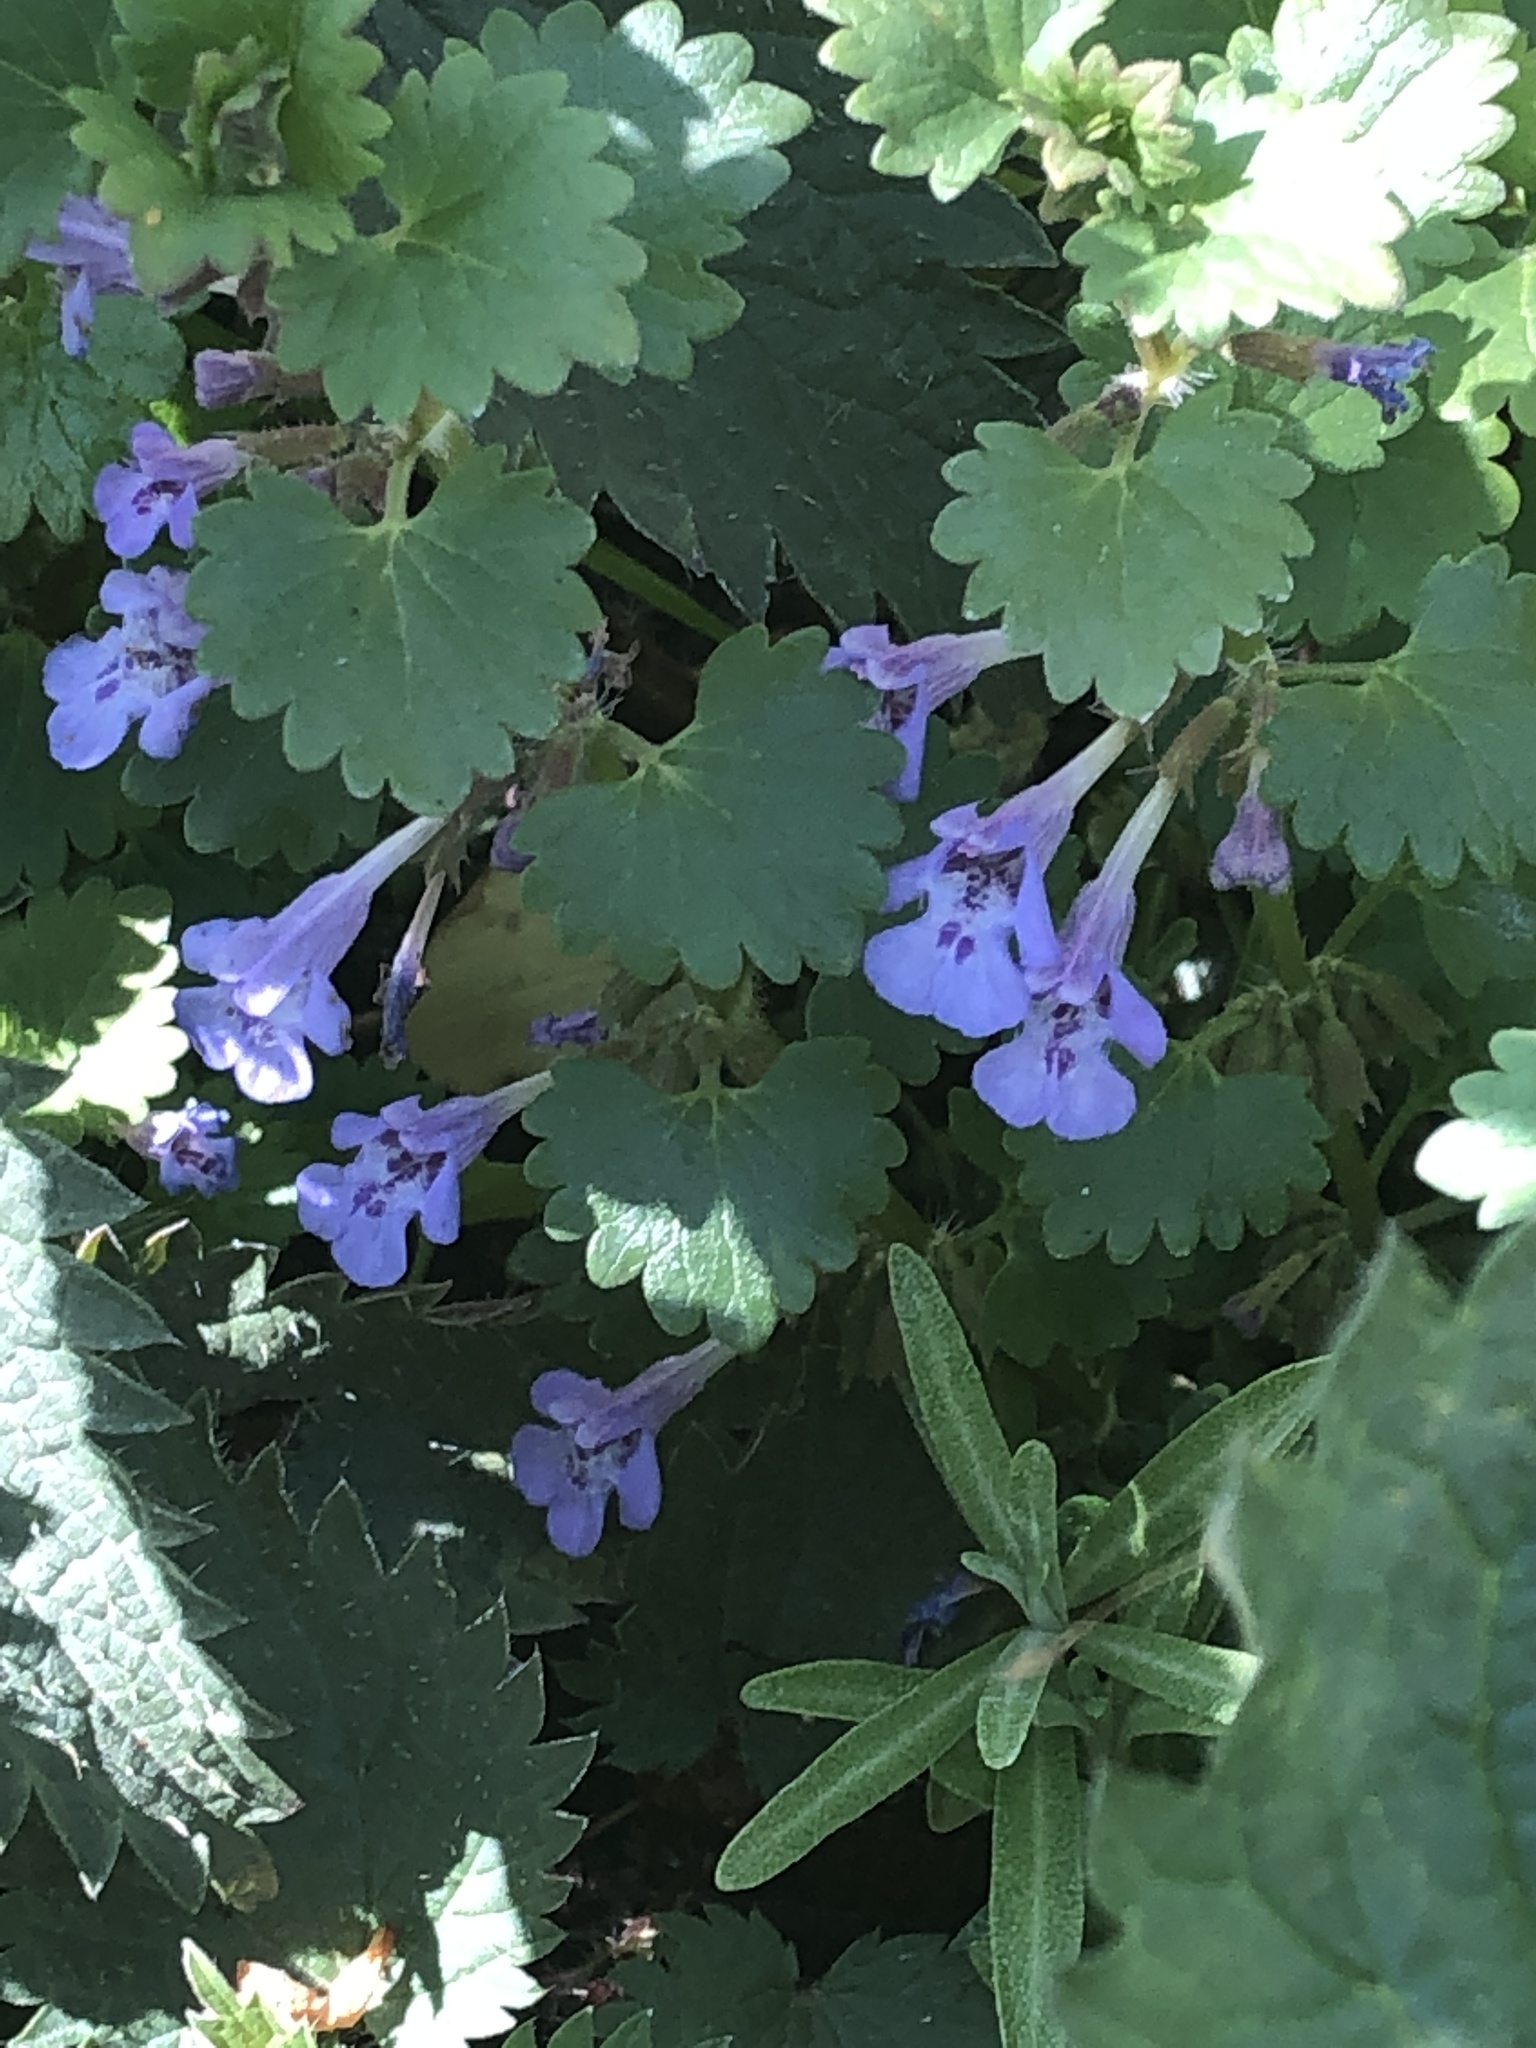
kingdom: Plantae
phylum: Tracheophyta
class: Magnoliopsida
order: Lamiales
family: Lamiaceae
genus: Glechoma
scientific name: Glechoma hederacea
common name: Ground ivy
